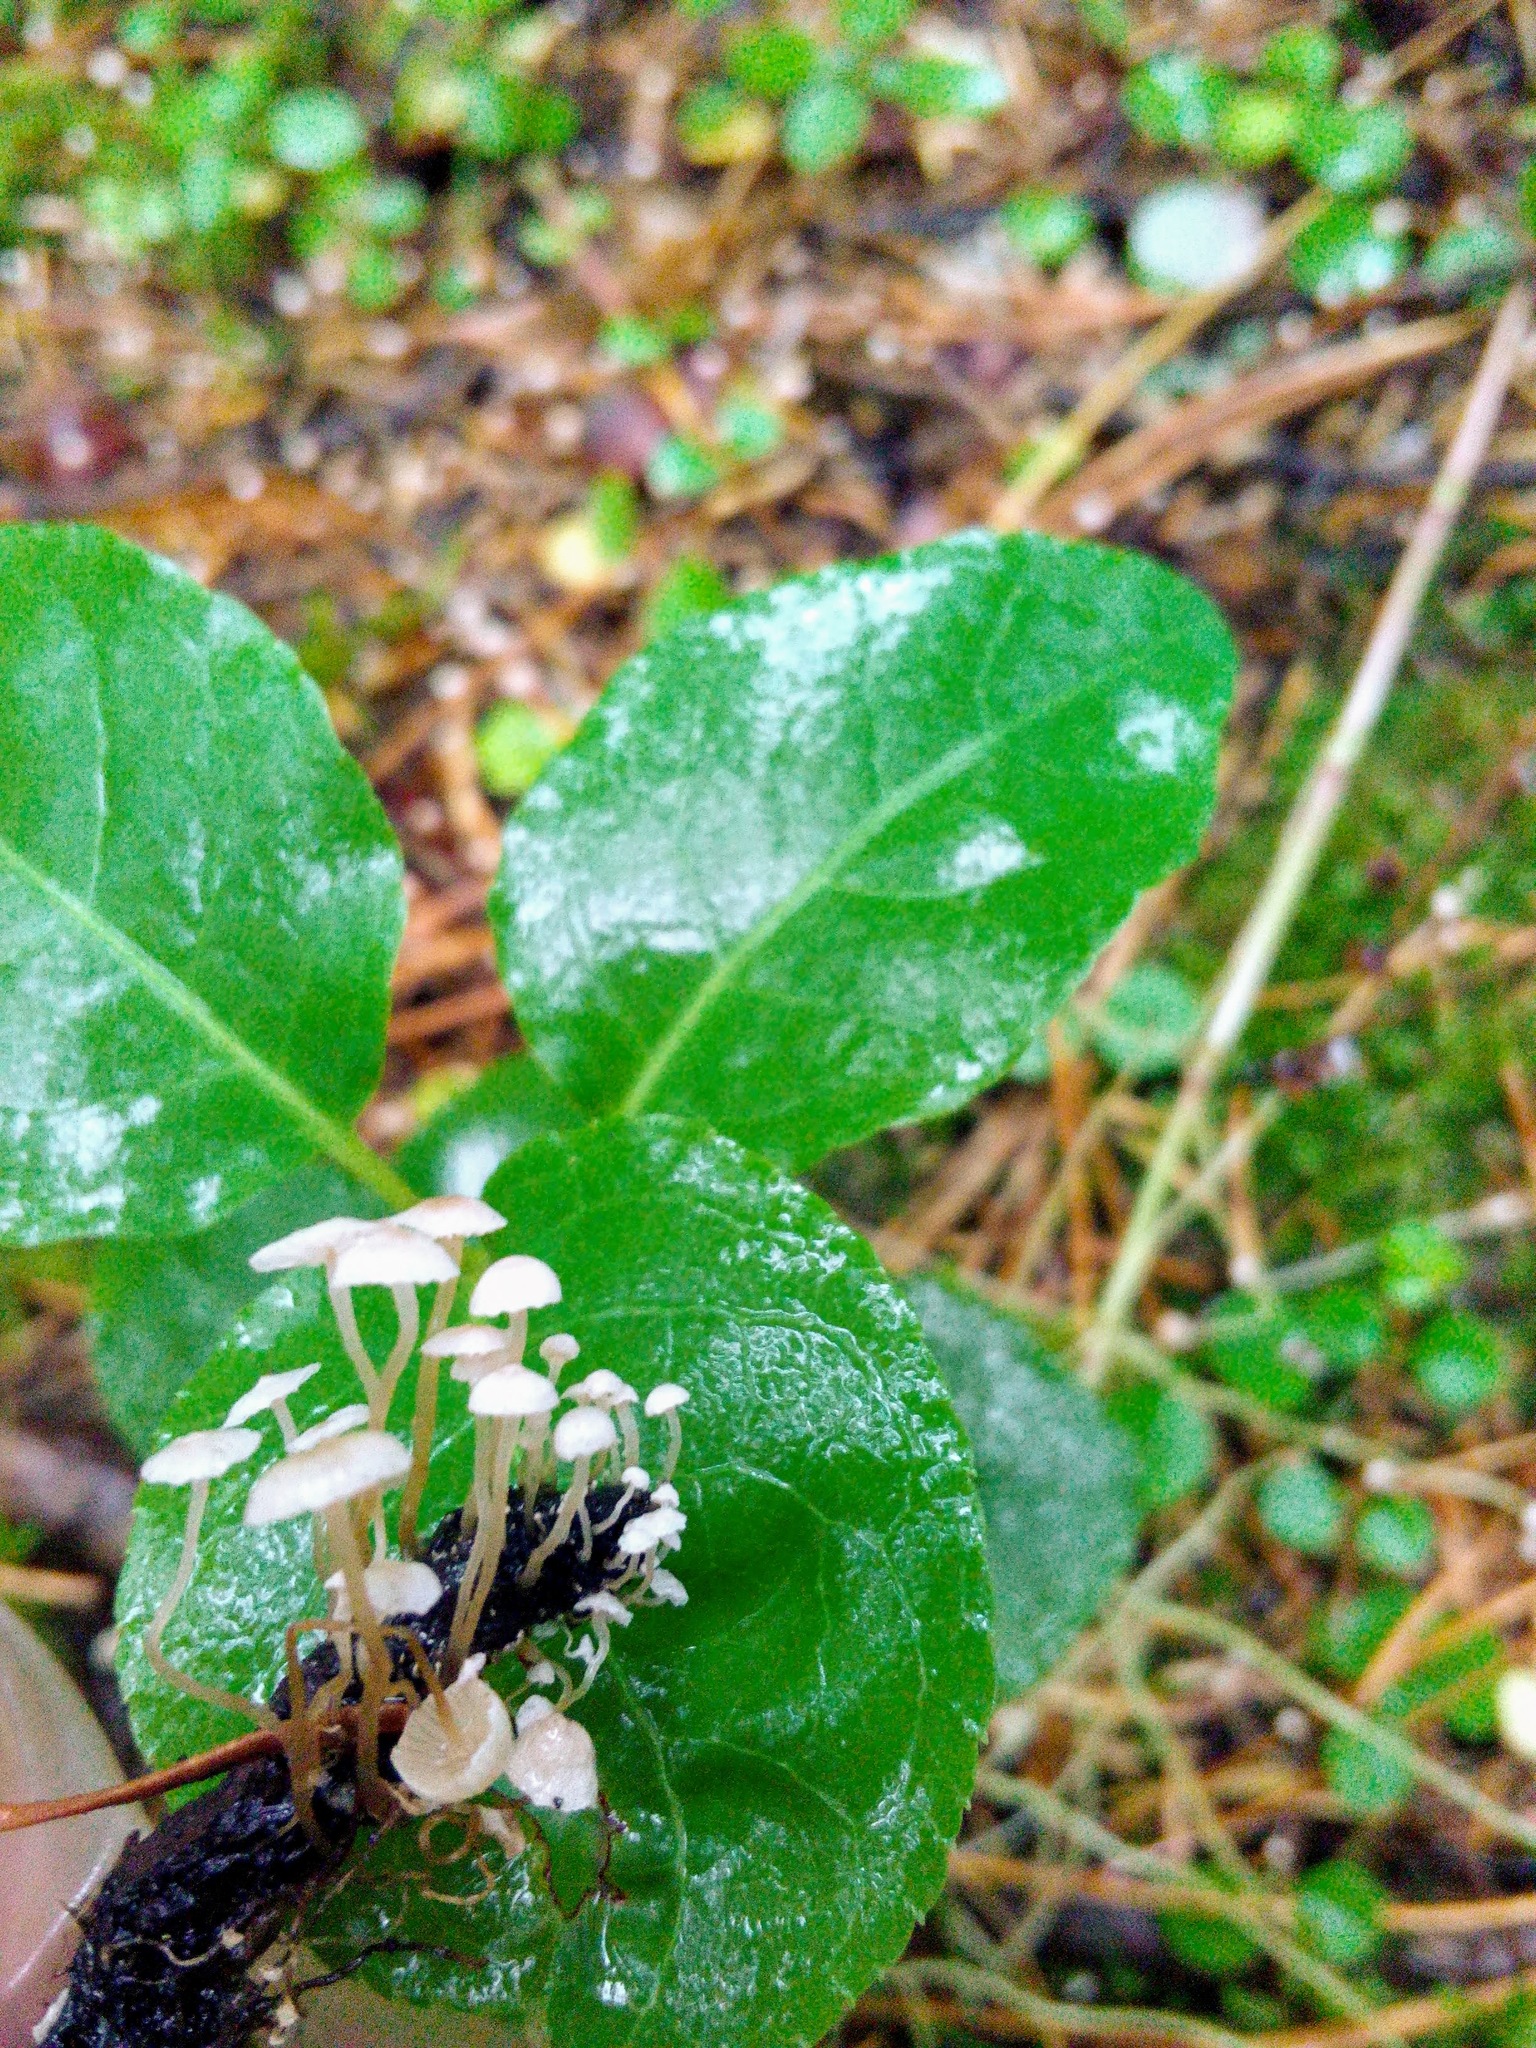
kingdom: Fungi
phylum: Basidiomycota
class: Agaricomycetes
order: Agaricales
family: Tricholomataceae
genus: Collybia
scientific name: Collybia cirrhata
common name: Piggyback shanklet
